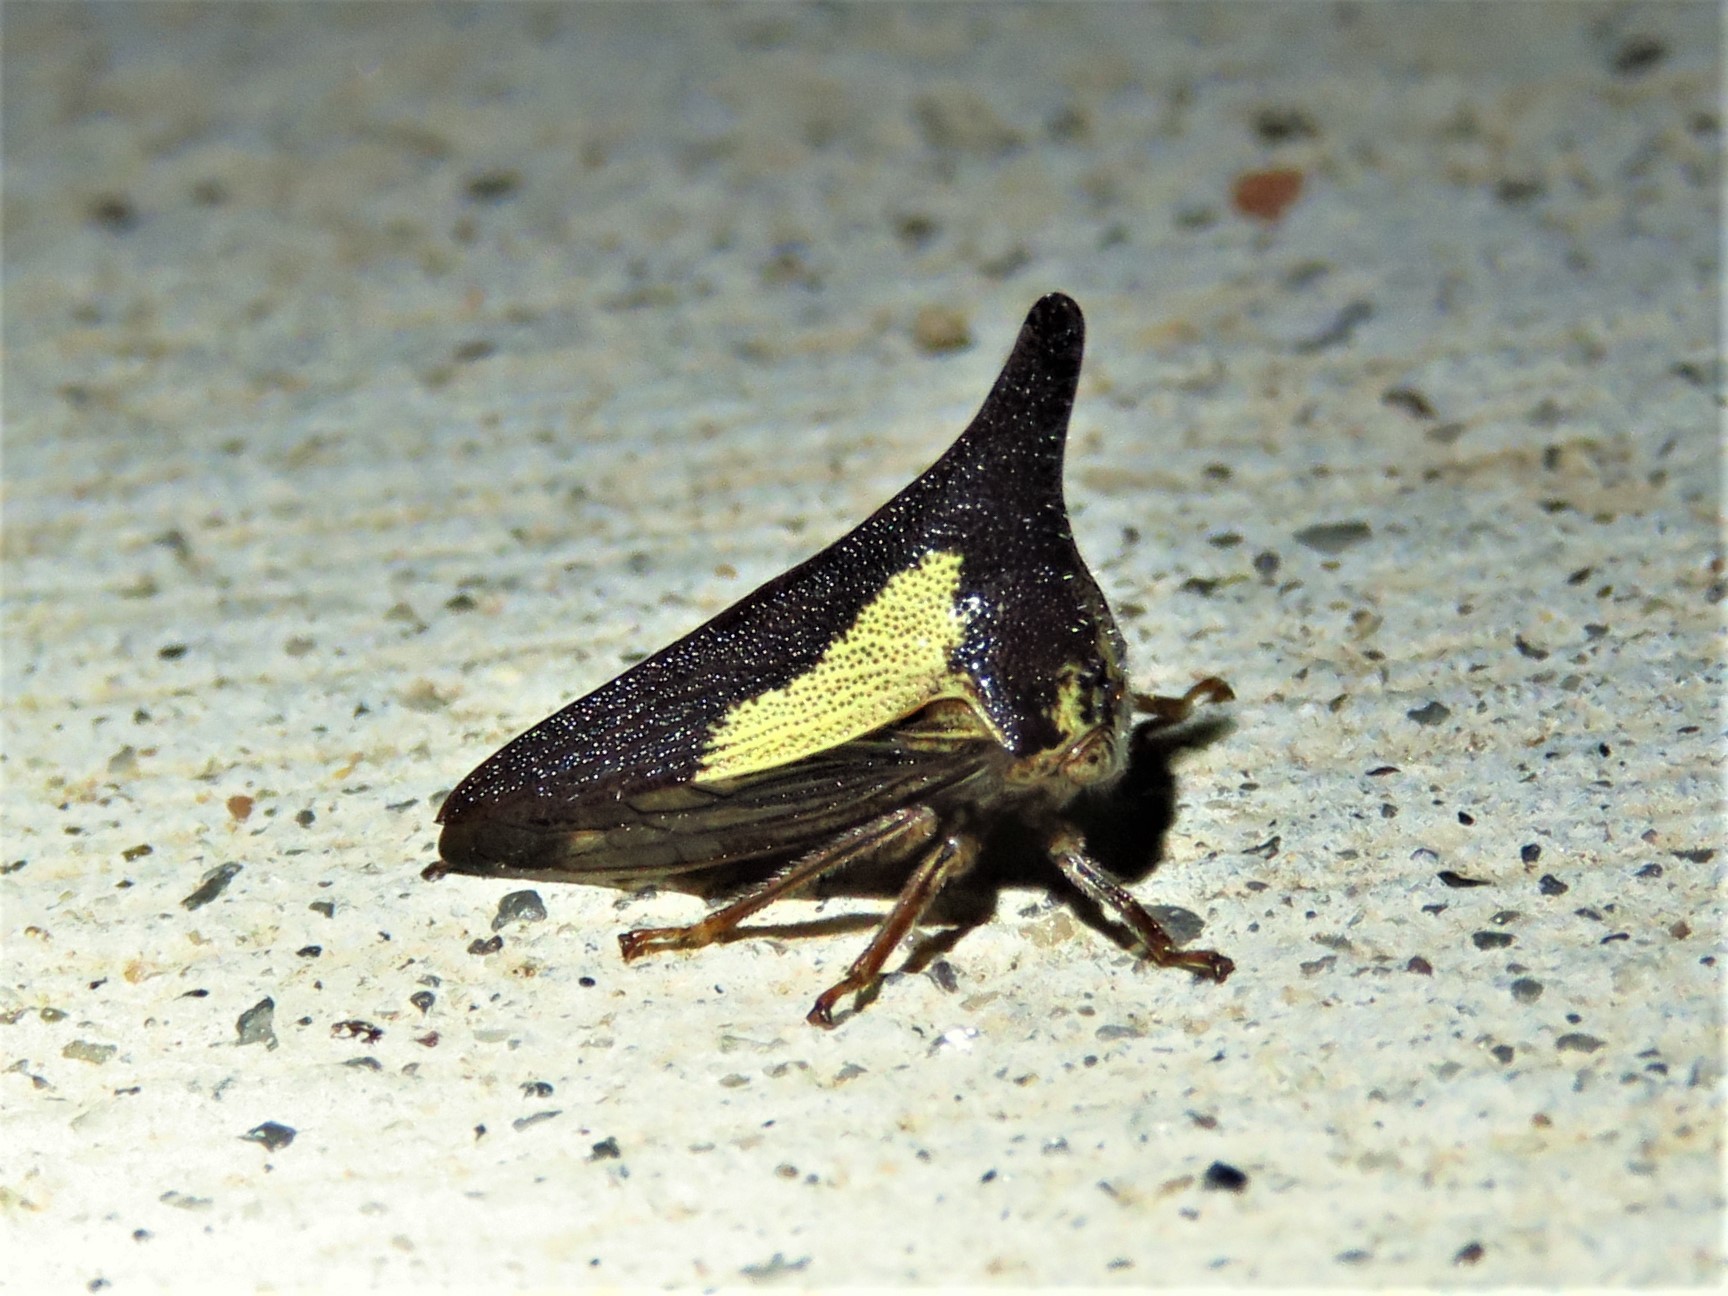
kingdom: Animalia
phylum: Arthropoda
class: Insecta
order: Hemiptera
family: Membracidae
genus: Thelia
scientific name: Thelia bimaculata
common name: Locust treehopper
